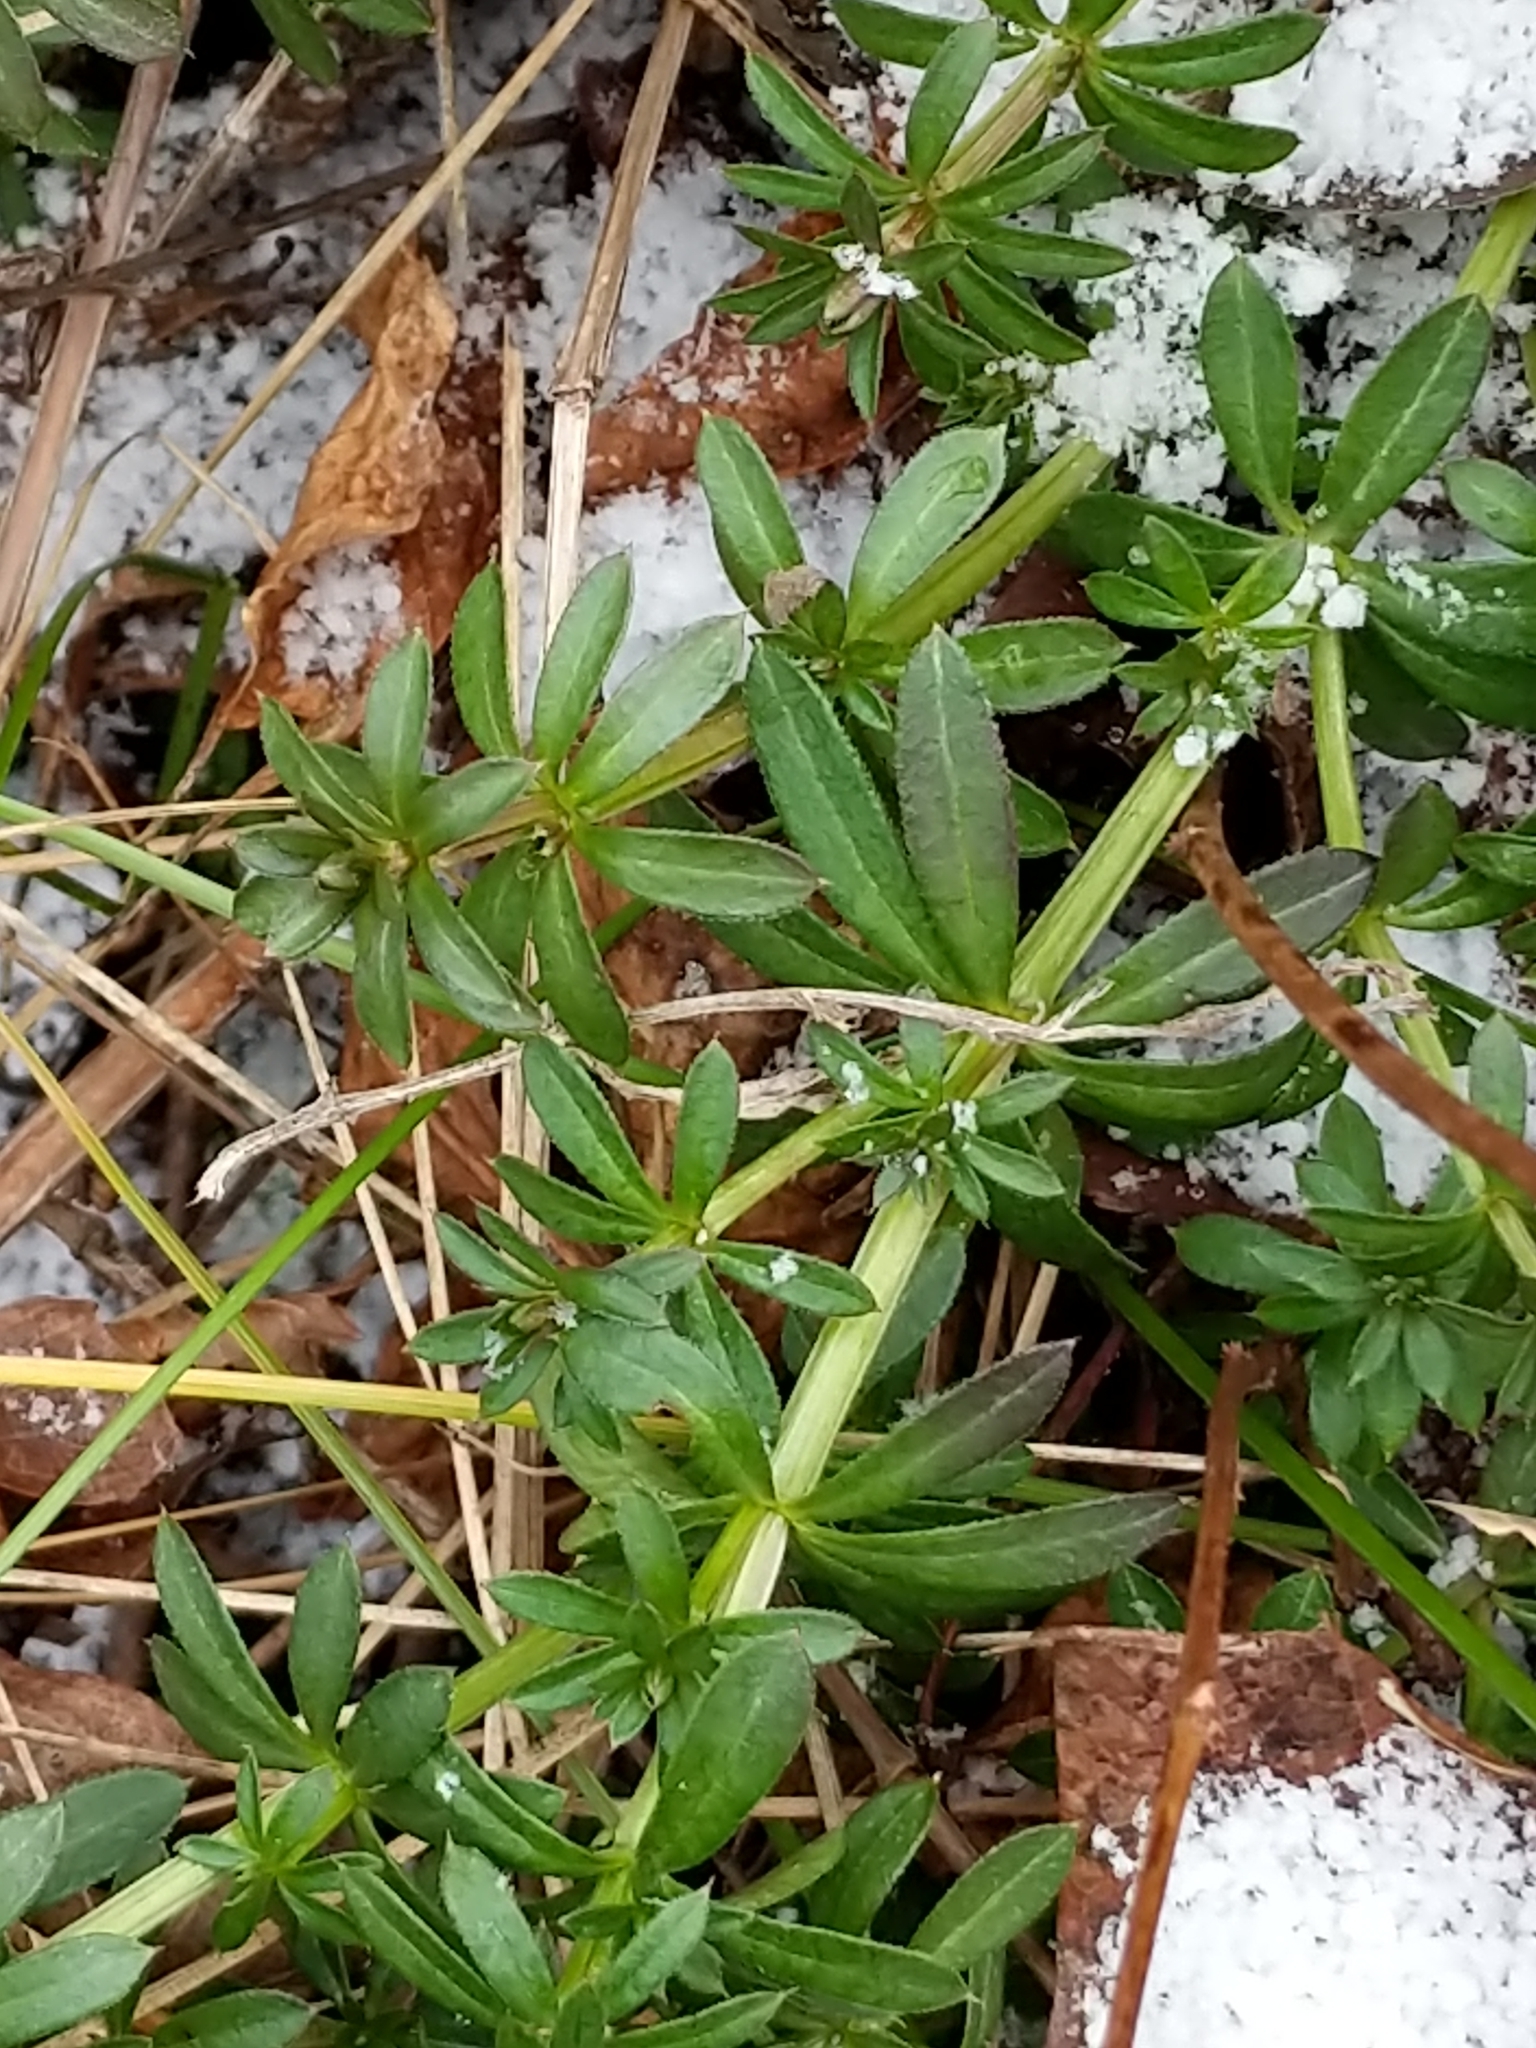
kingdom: Plantae
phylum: Tracheophyta
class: Magnoliopsida
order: Gentianales
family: Rubiaceae
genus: Galium
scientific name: Galium mollugo
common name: Hedge bedstraw
